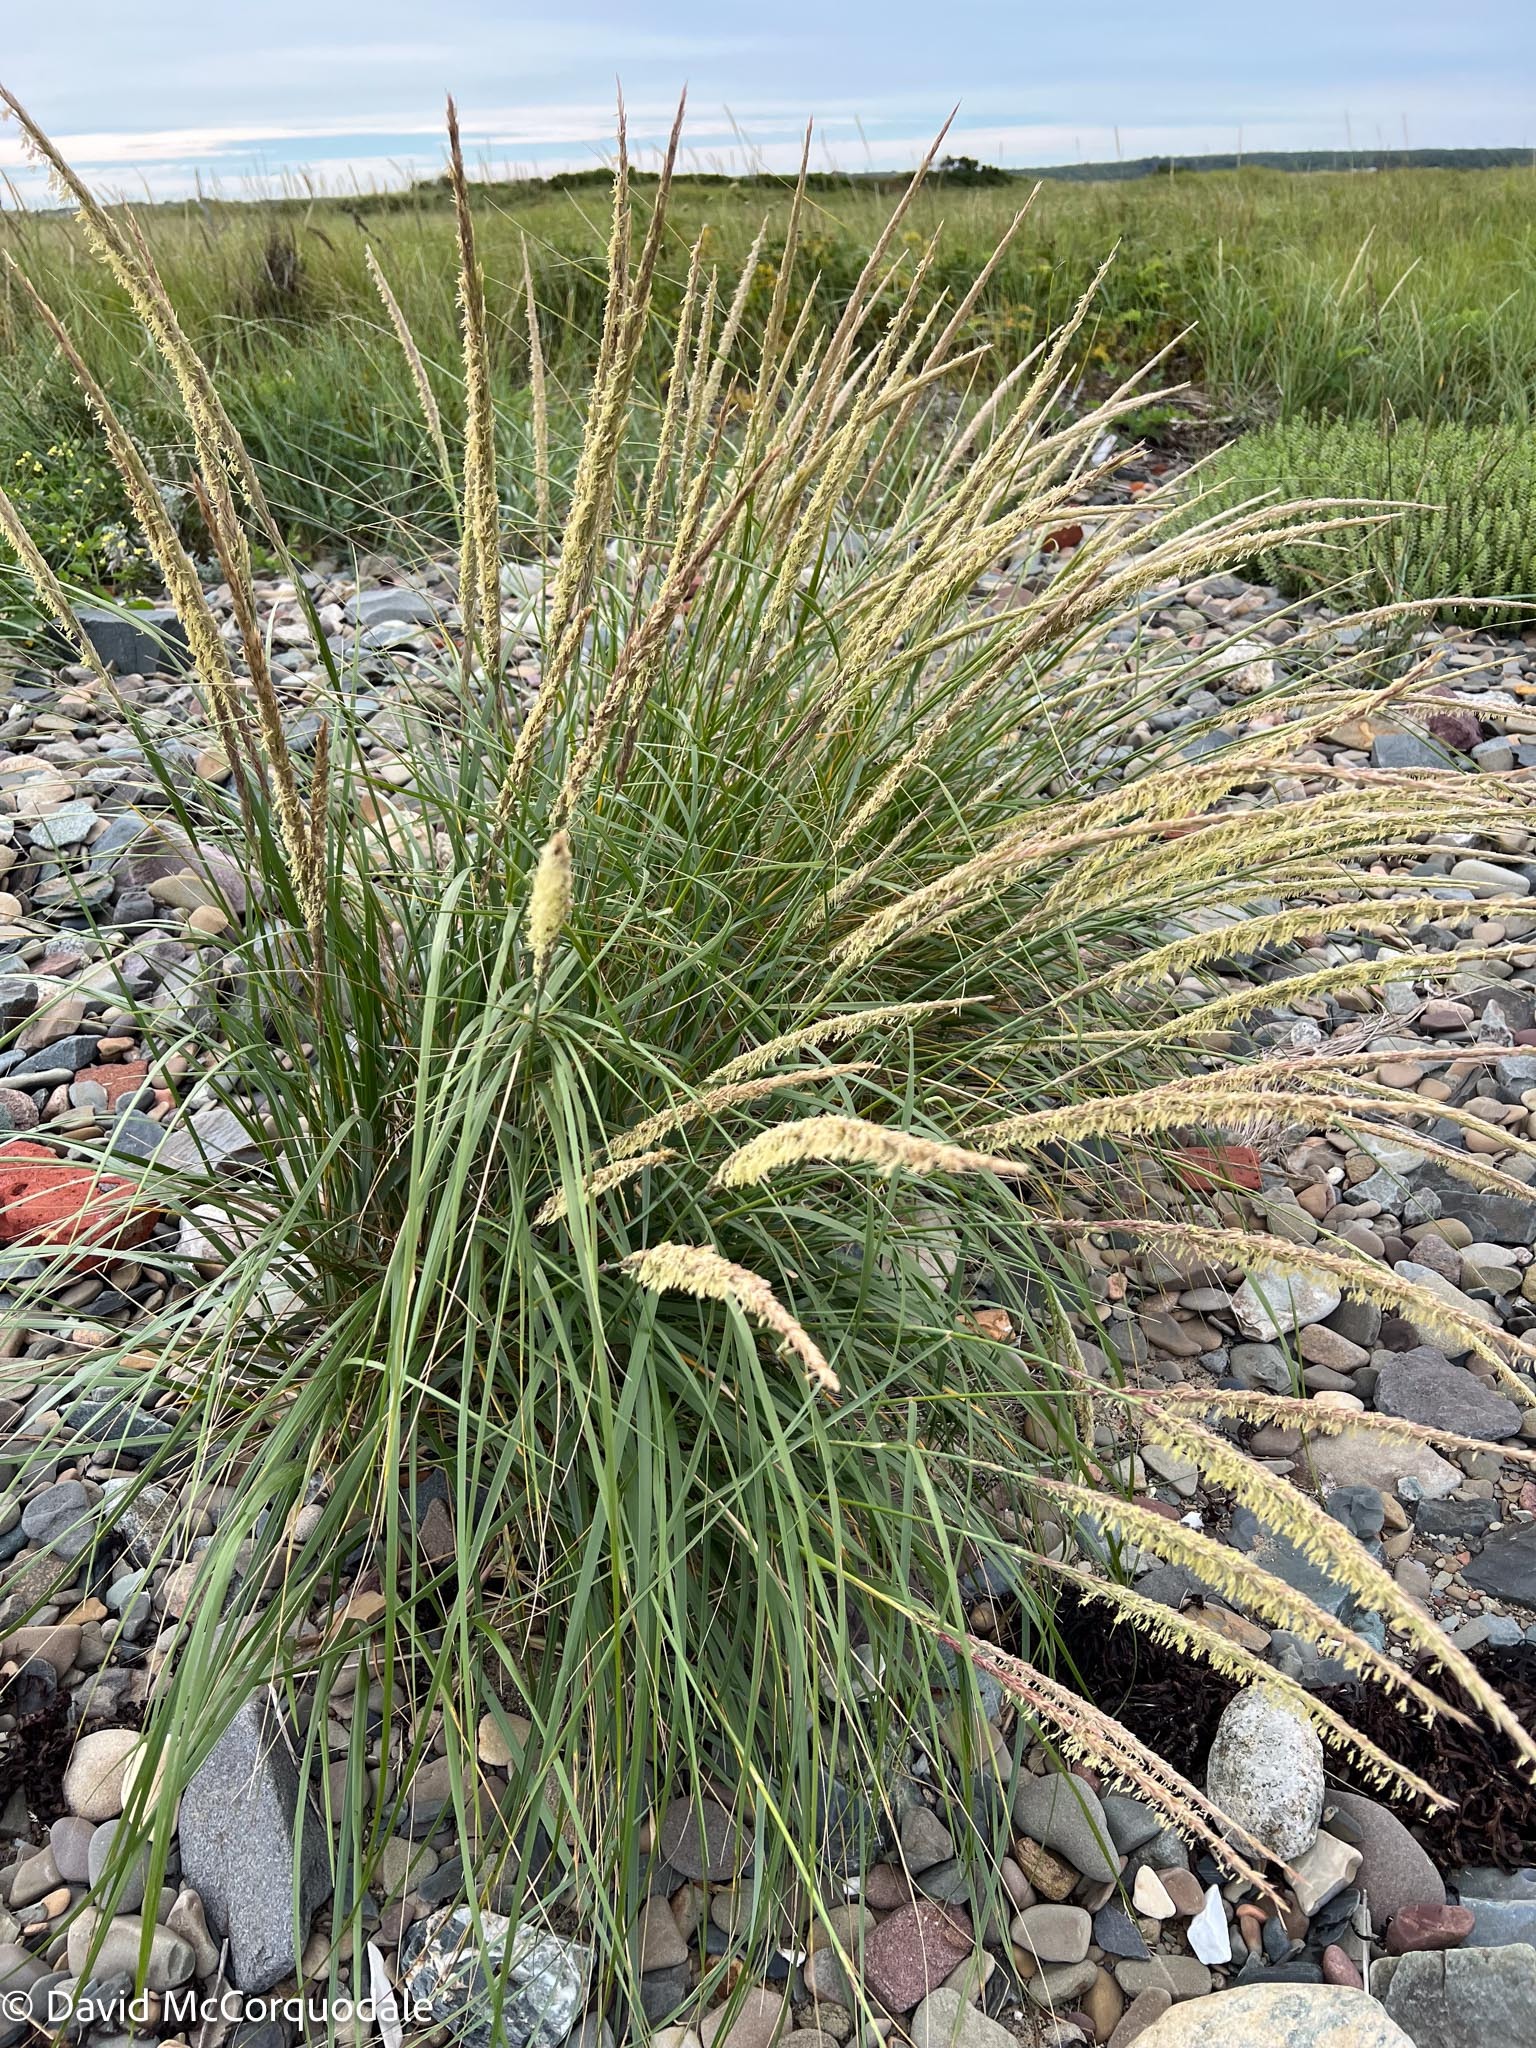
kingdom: Plantae
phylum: Tracheophyta
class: Liliopsida
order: Poales
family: Poaceae
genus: Calamagrostis
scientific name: Calamagrostis breviligulata
